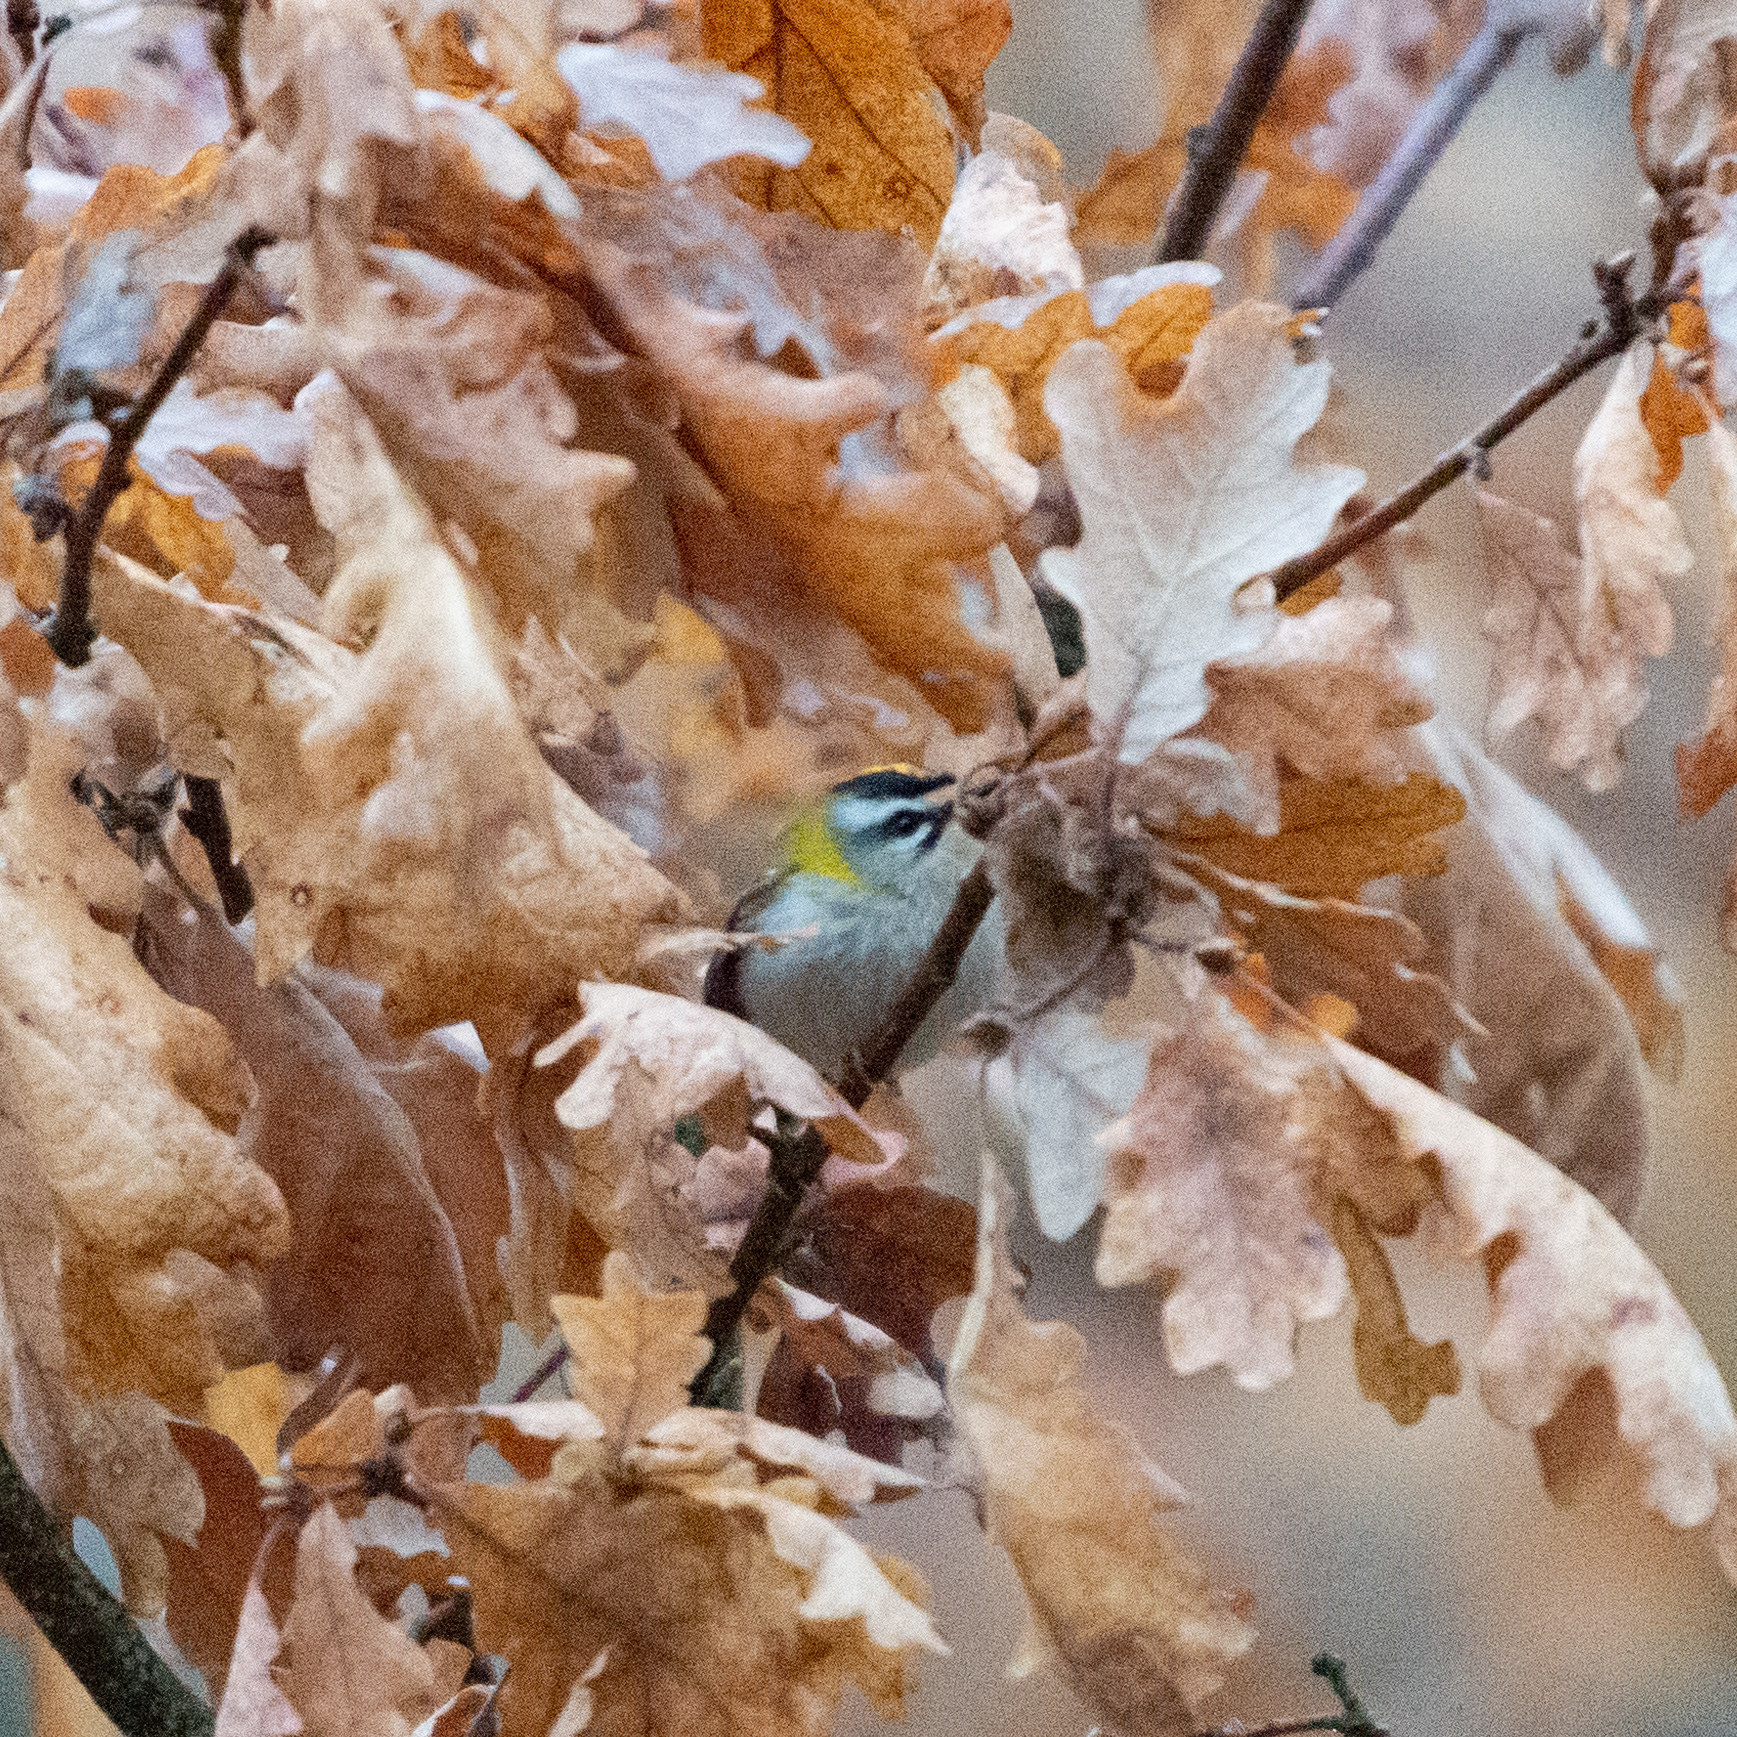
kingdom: Animalia
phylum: Chordata
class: Aves
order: Passeriformes
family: Regulidae
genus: Regulus
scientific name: Regulus ignicapilla
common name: Firecrest
